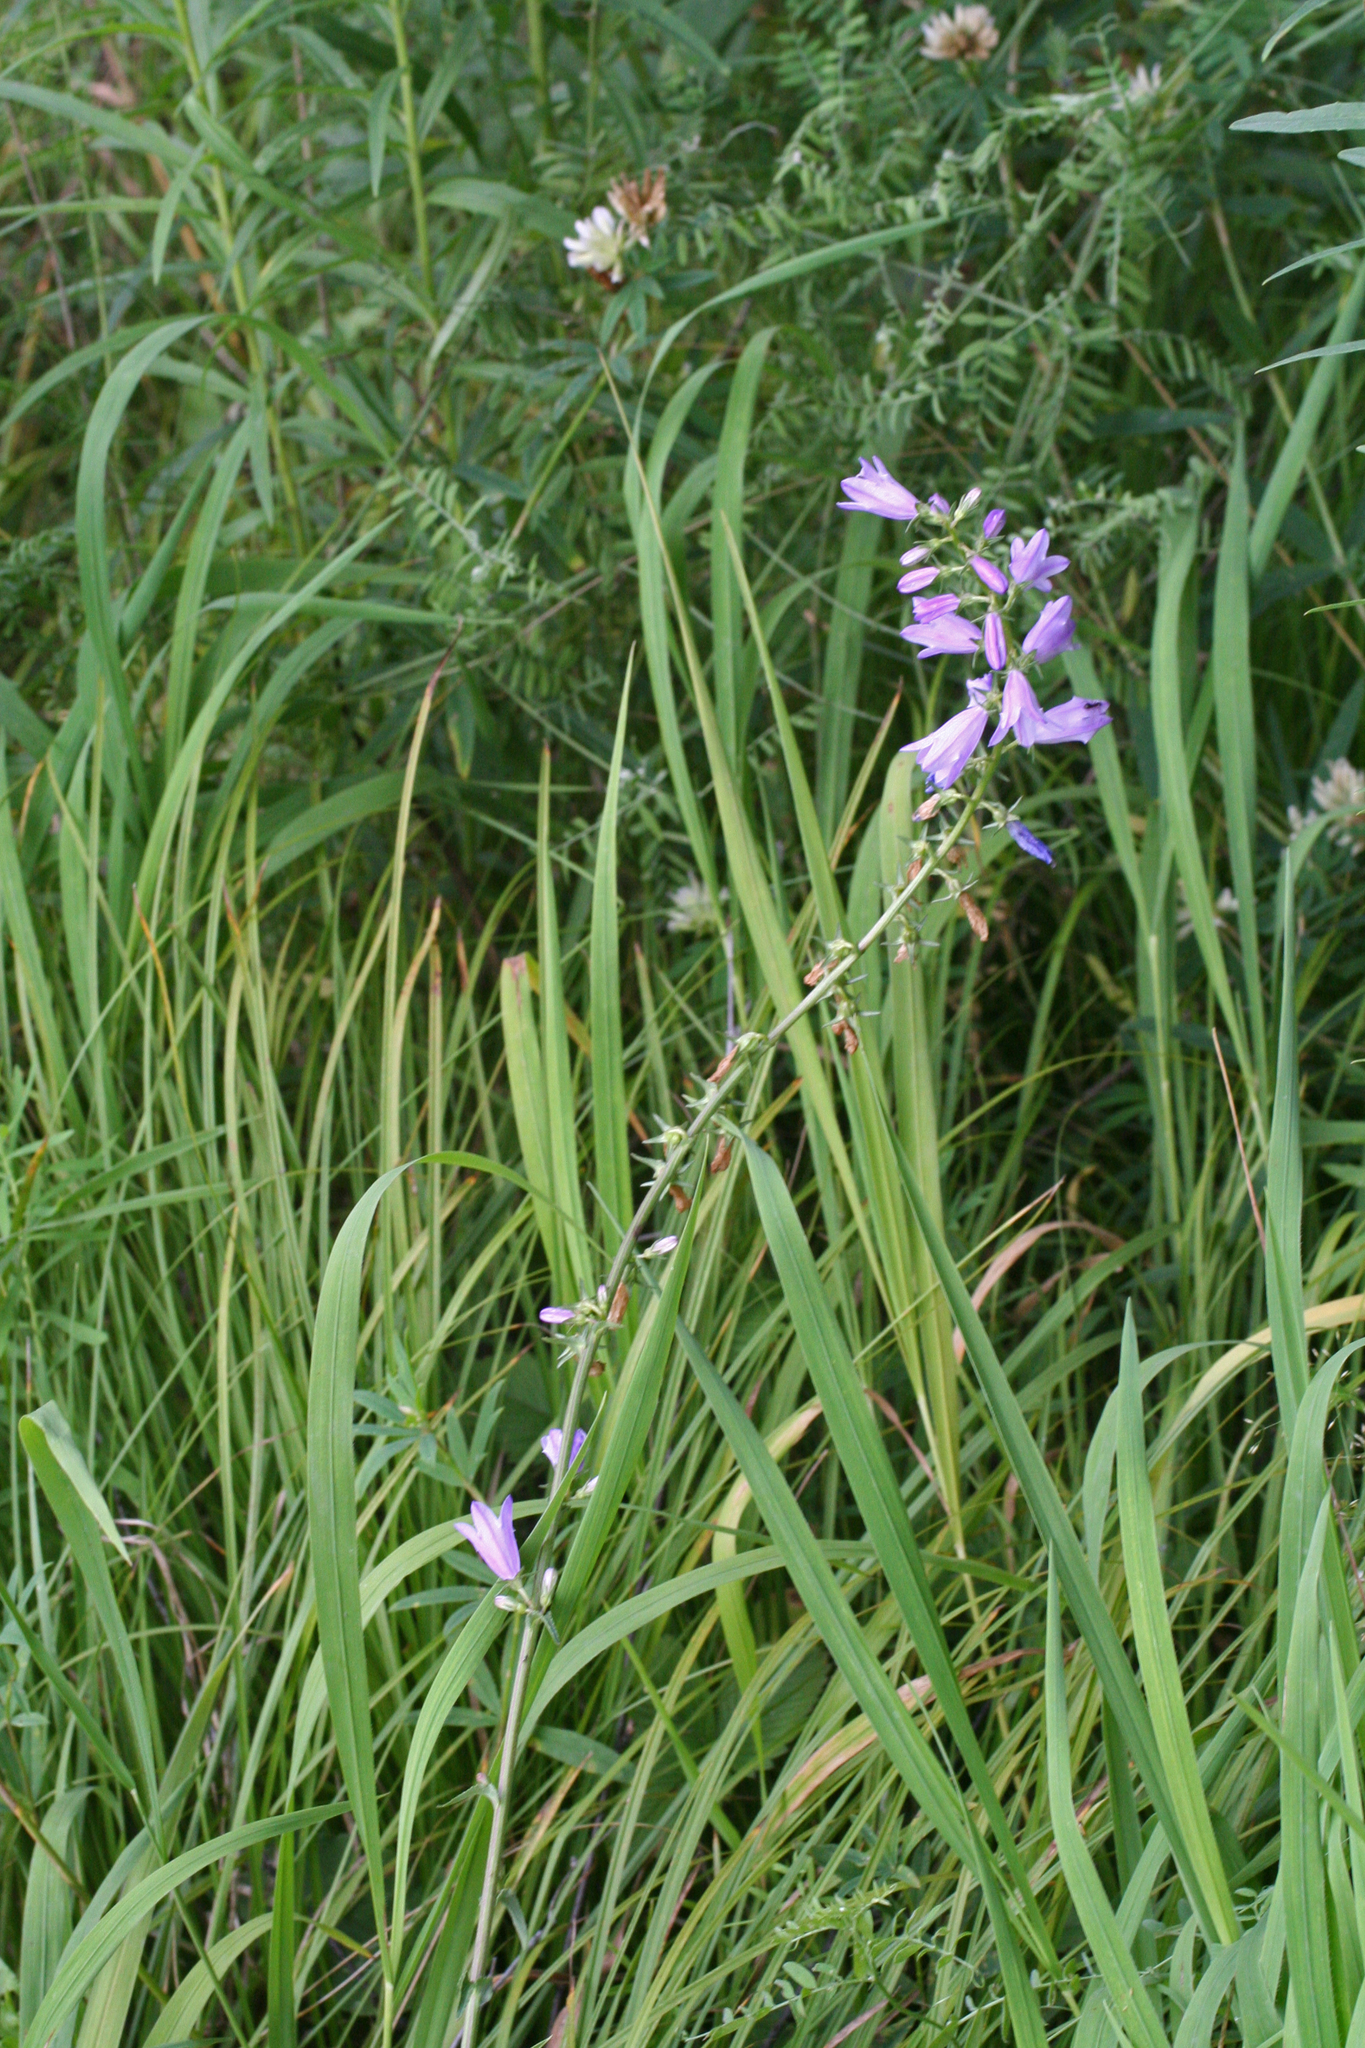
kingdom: Plantae
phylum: Tracheophyta
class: Magnoliopsida
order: Asterales
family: Campanulaceae
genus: Campanula
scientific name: Campanula bononiensis
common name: Pale bellflower
